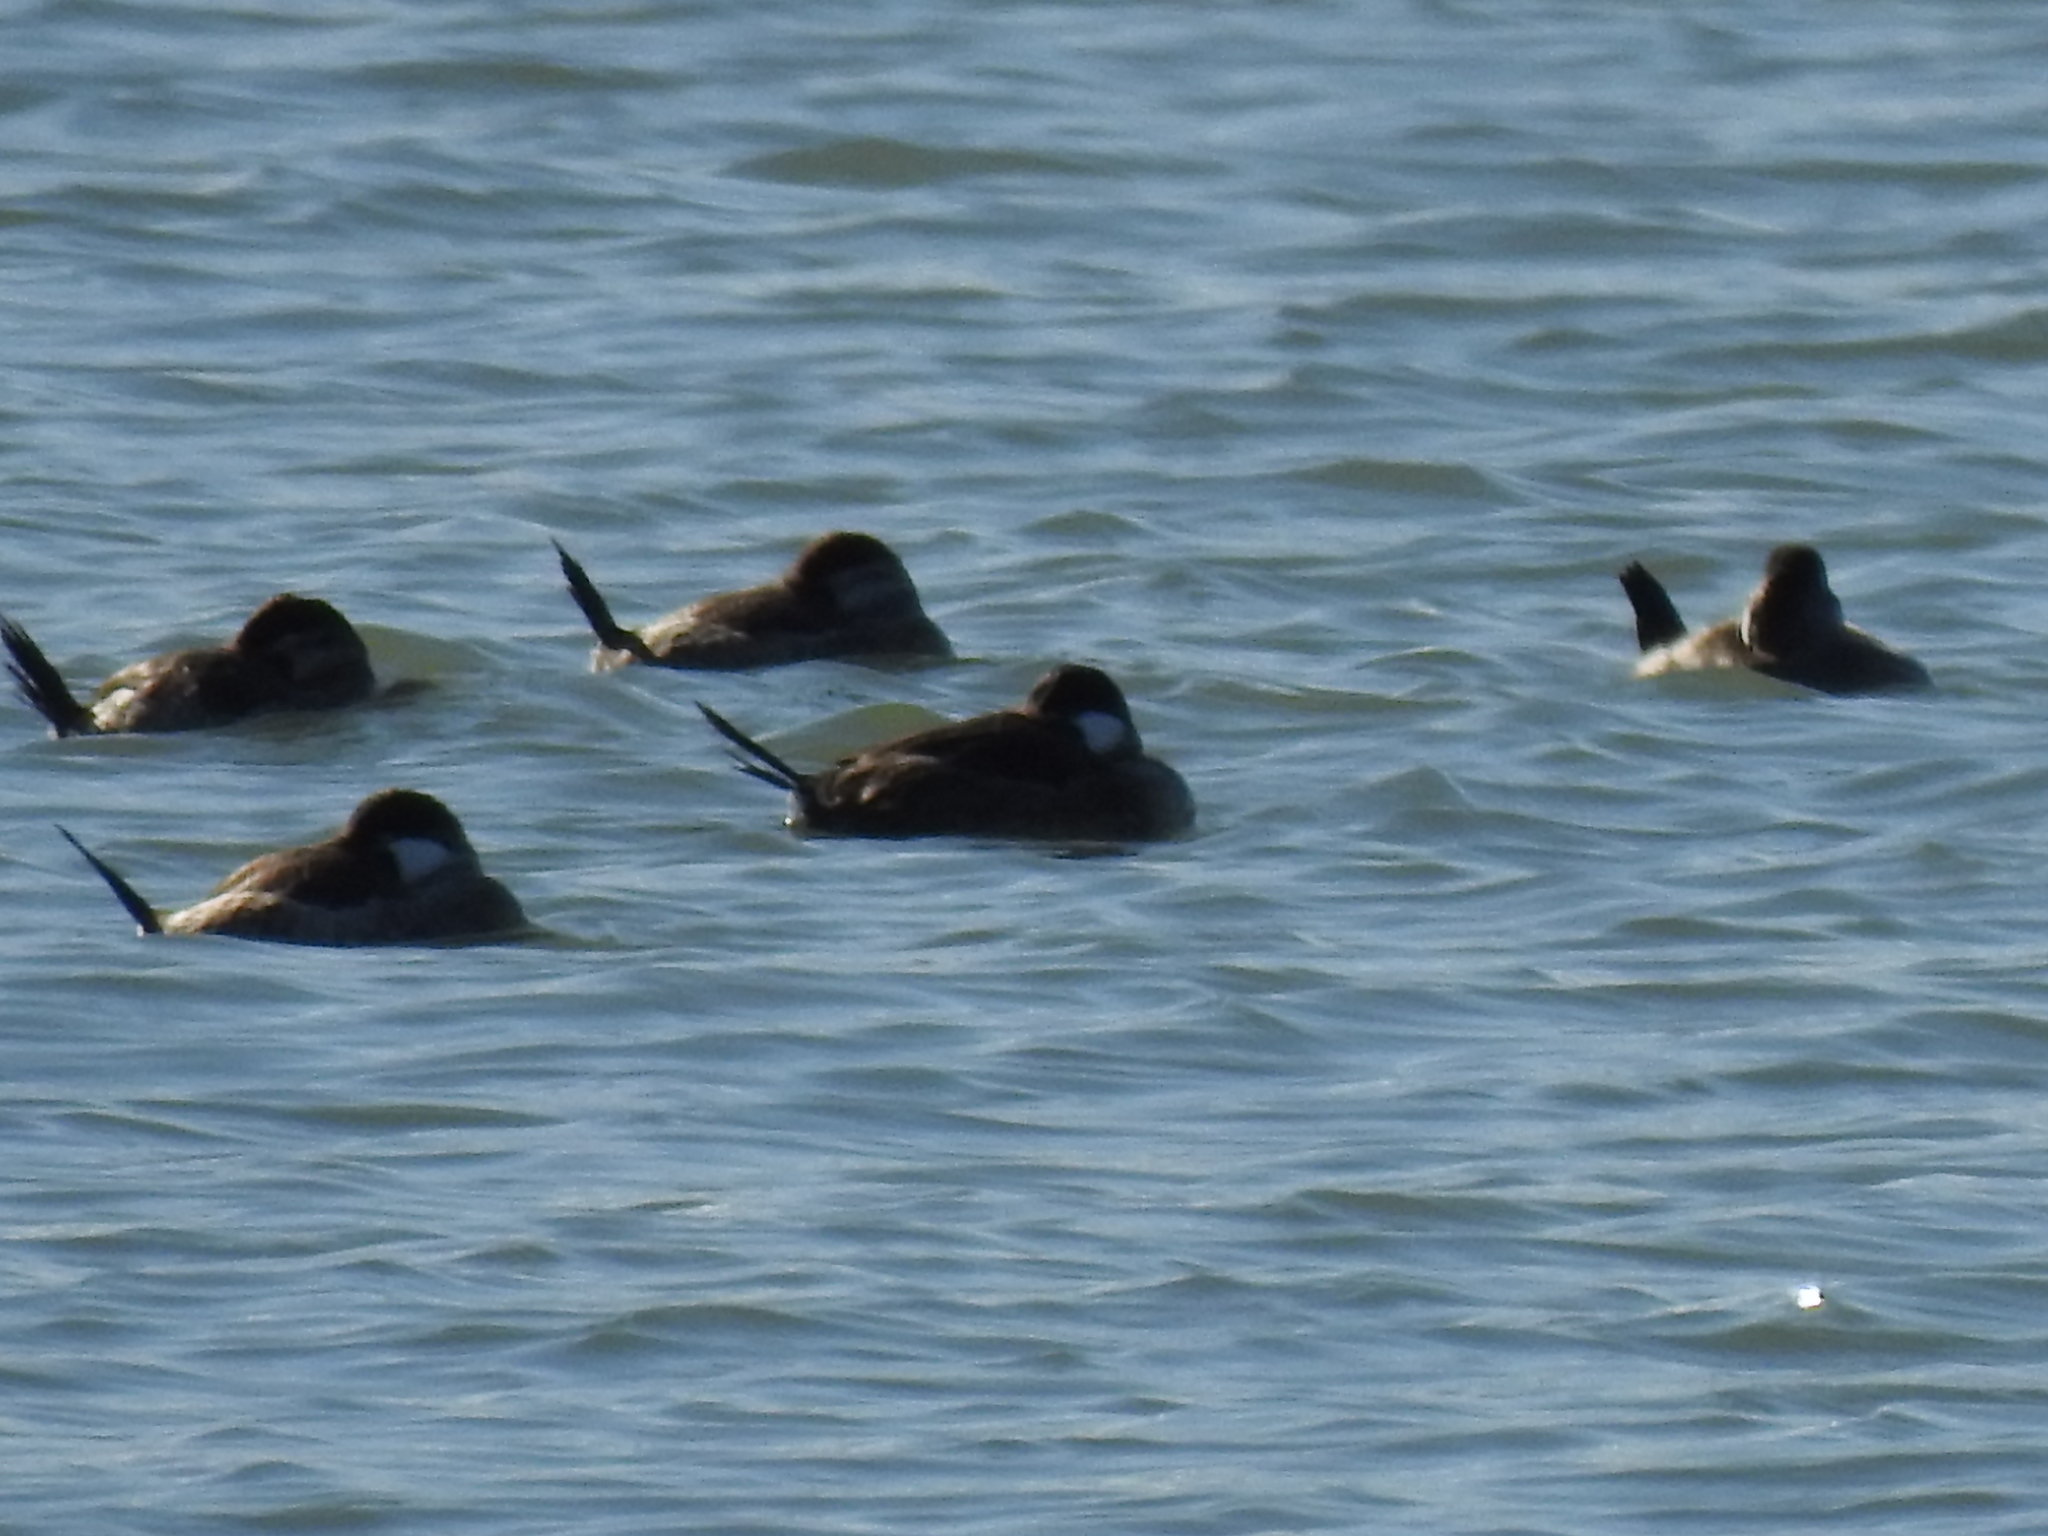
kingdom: Animalia
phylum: Chordata
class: Aves
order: Anseriformes
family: Anatidae
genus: Oxyura
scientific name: Oxyura jamaicensis
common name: Ruddy duck
